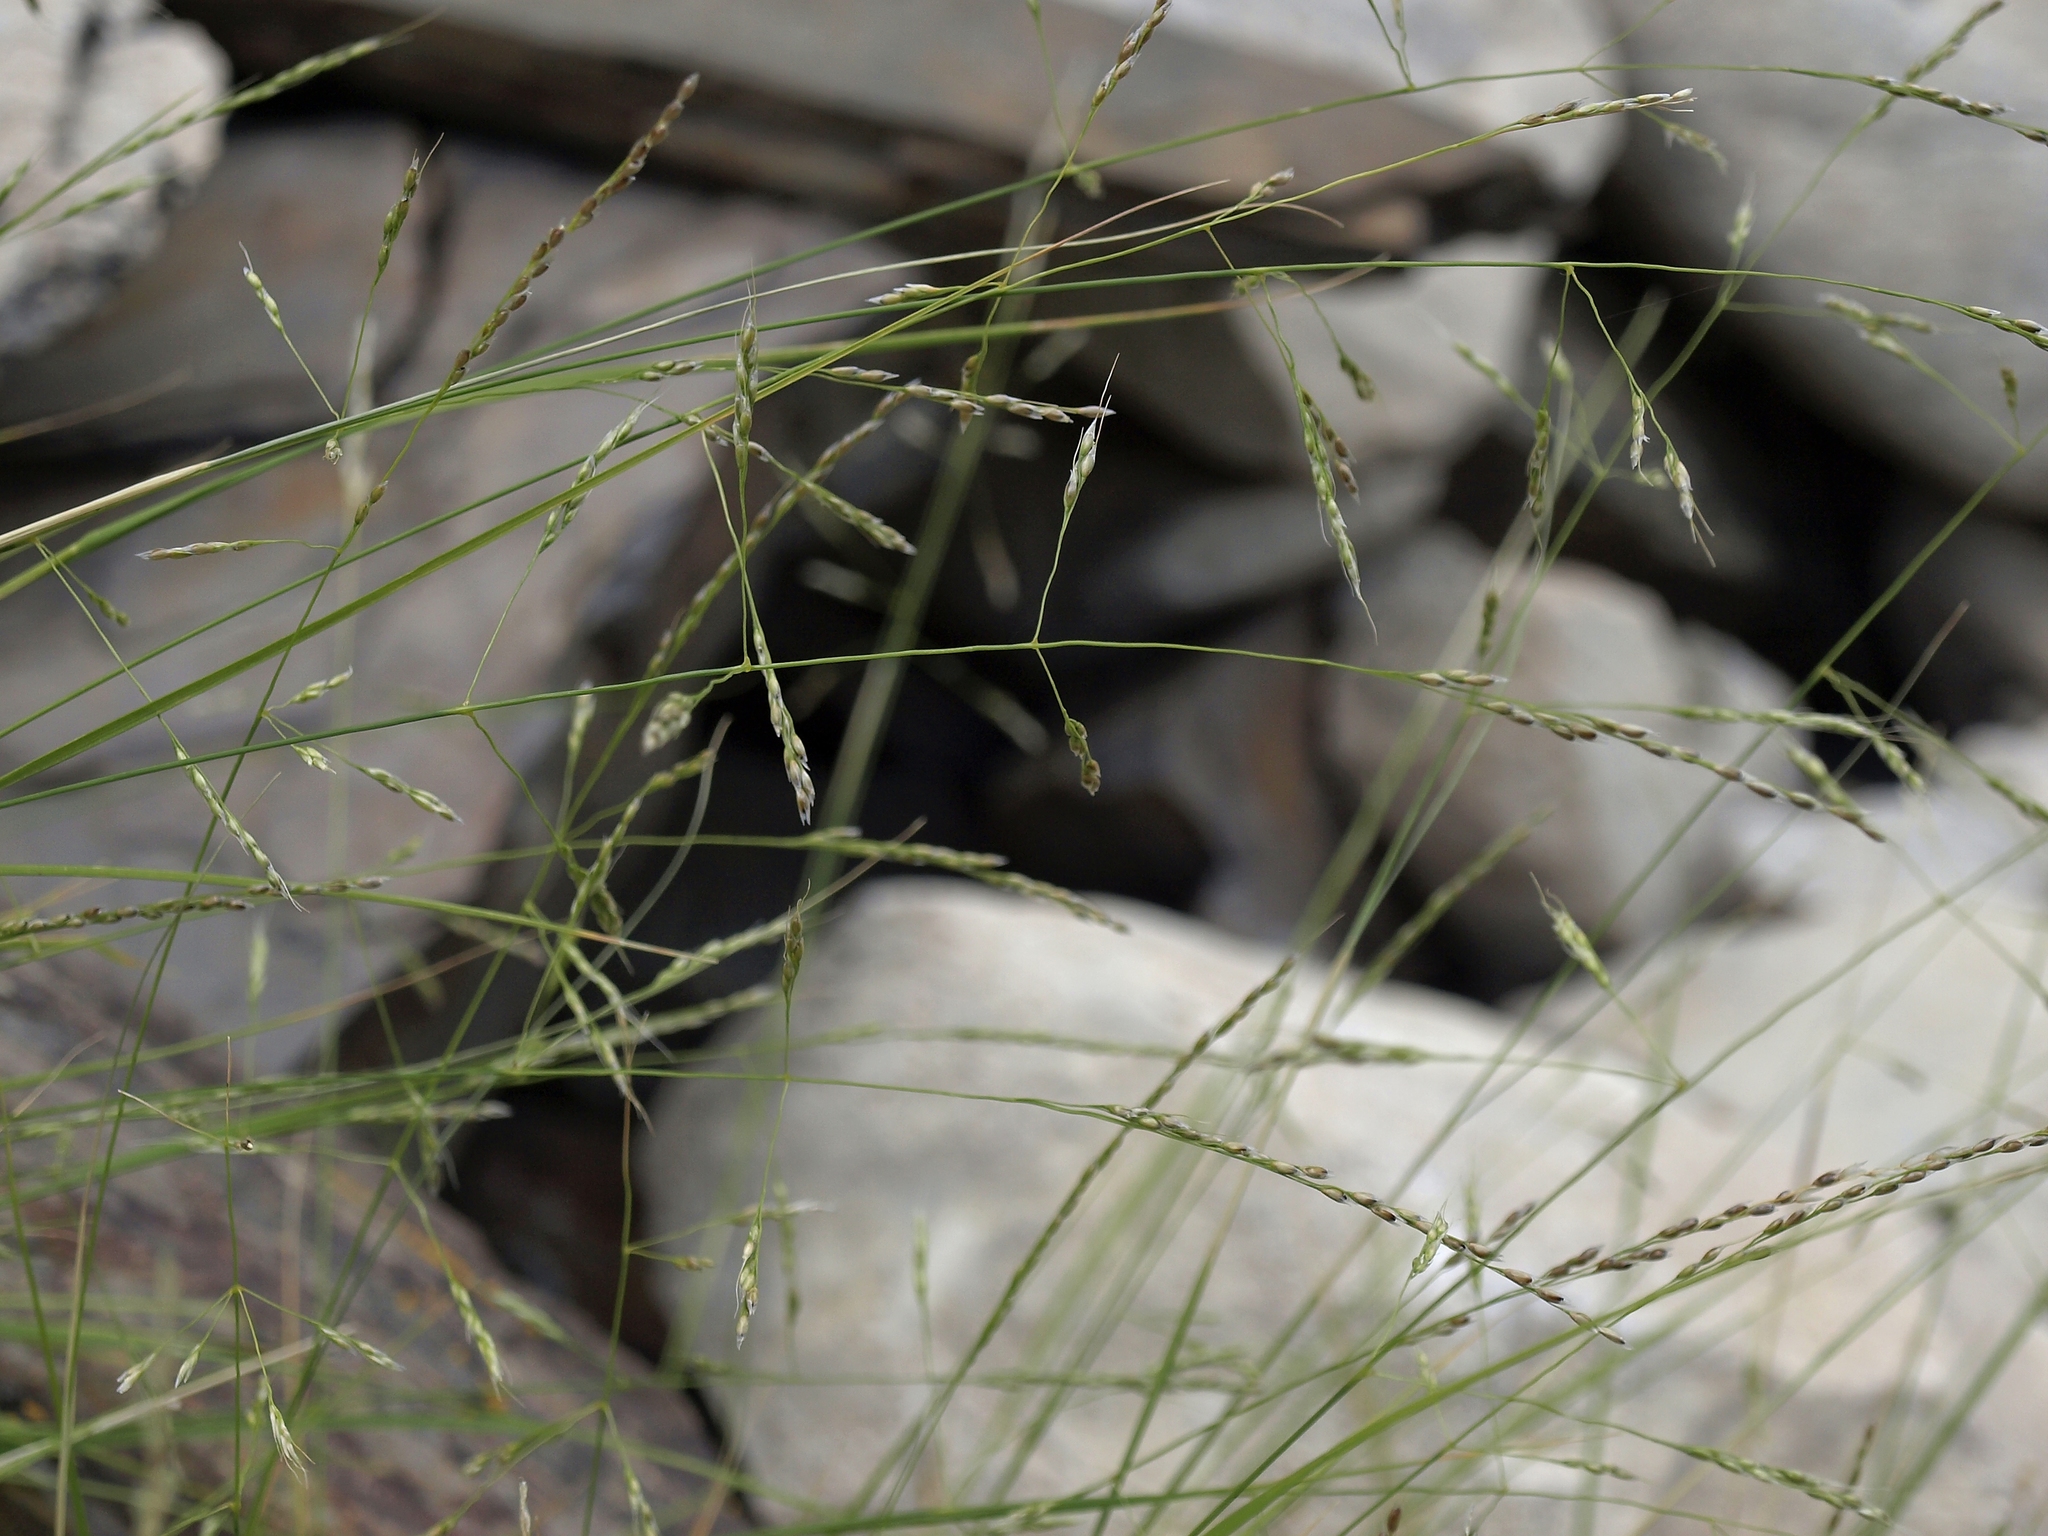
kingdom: Plantae
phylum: Tracheophyta
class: Liliopsida
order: Poales
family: Poaceae
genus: Piptatheropsis
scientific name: Piptatheropsis micrantha
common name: Little-seed mountain ricegrass
